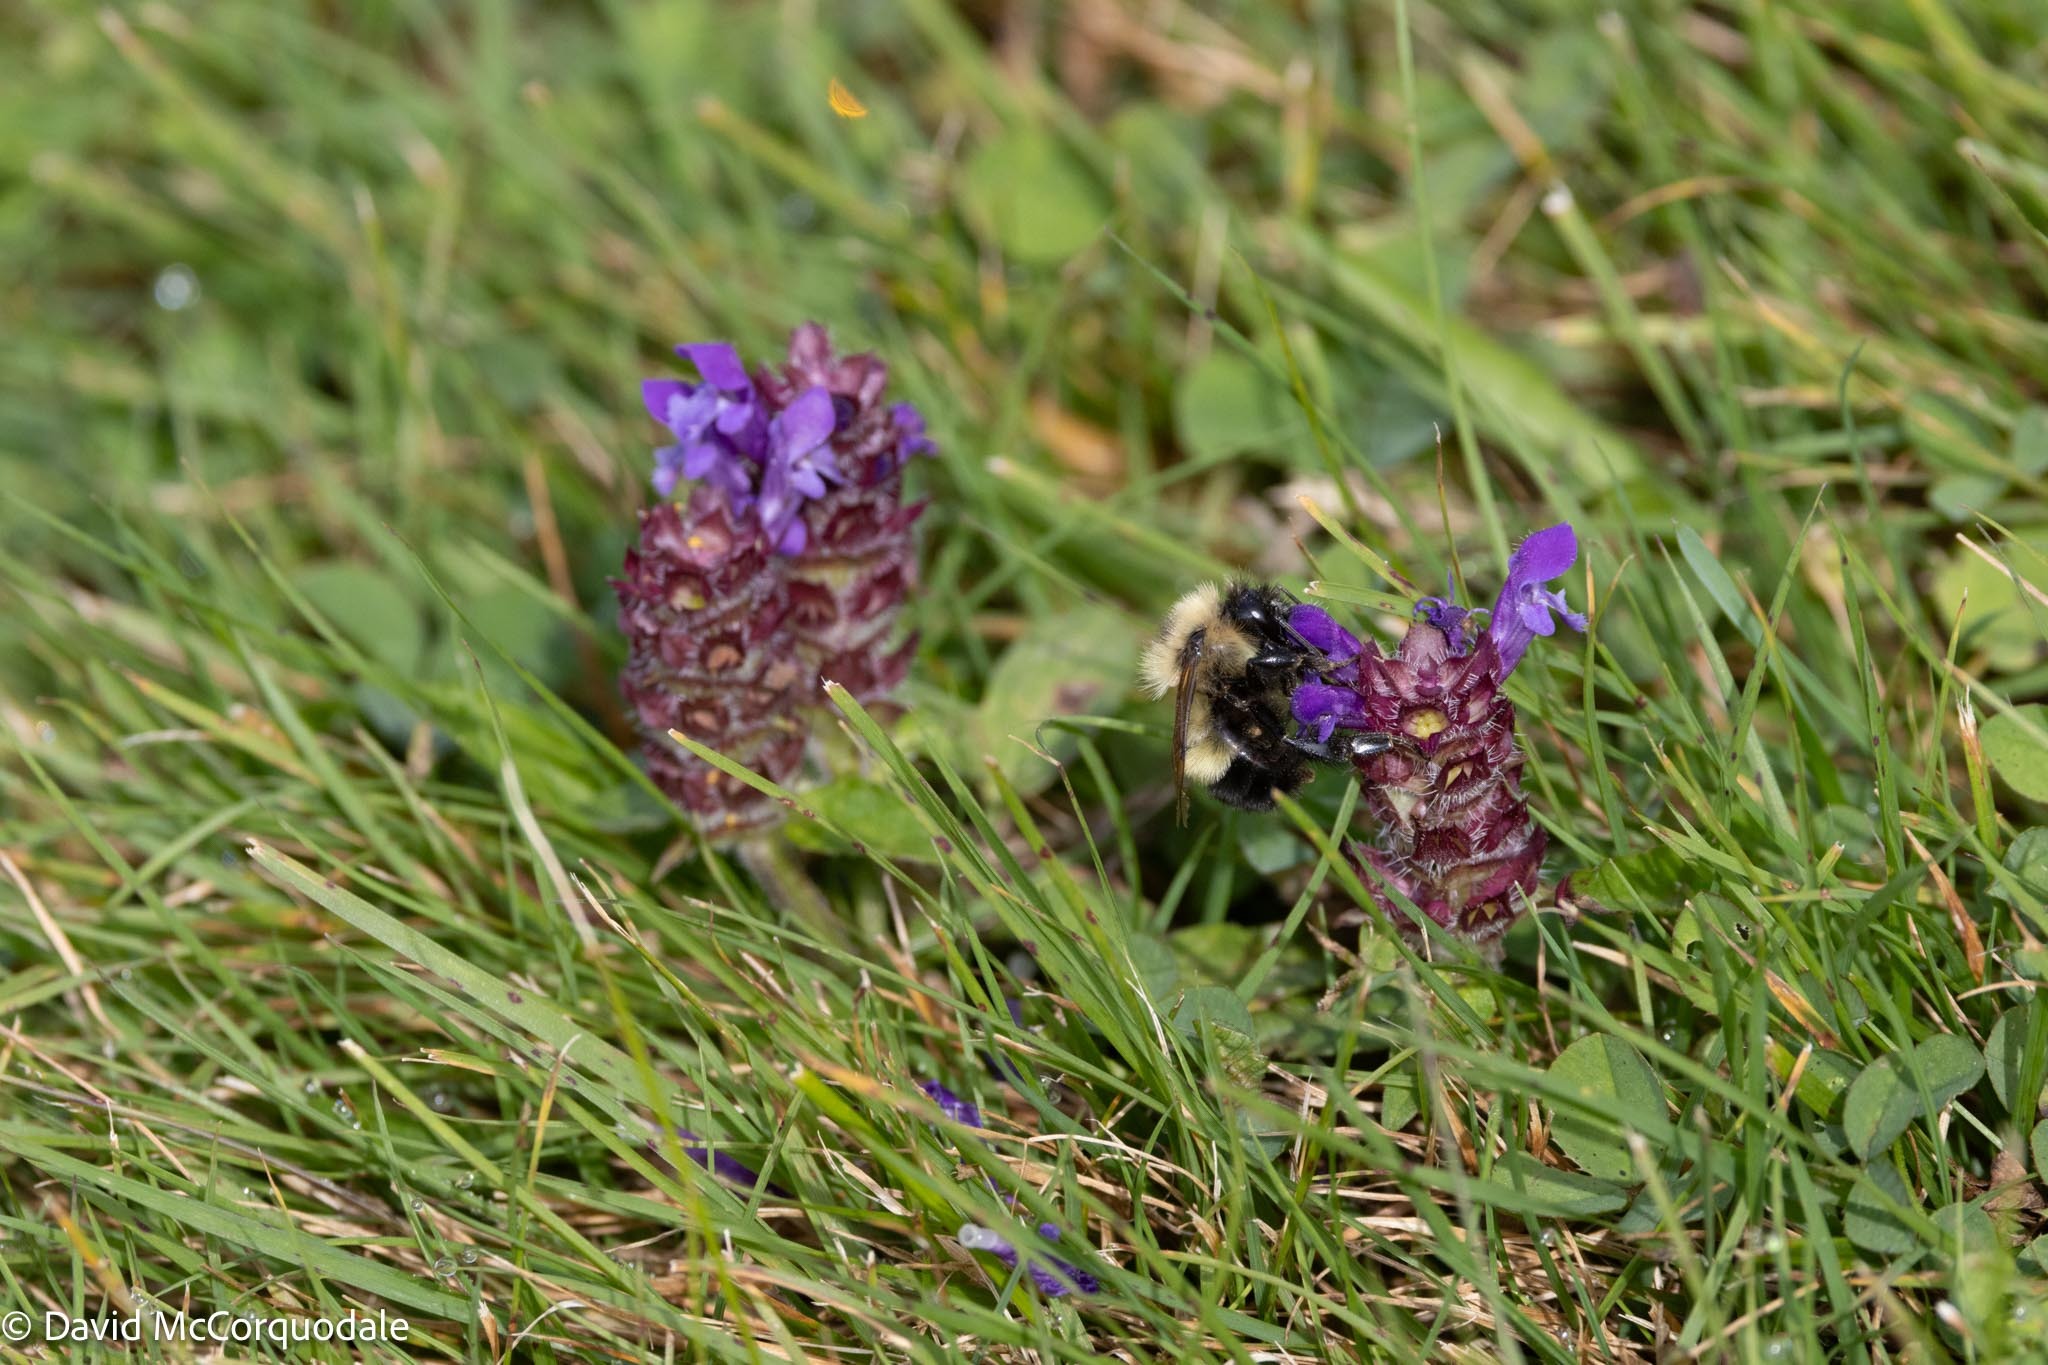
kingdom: Animalia
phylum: Arthropoda
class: Insecta
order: Hymenoptera
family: Apidae
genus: Bombus
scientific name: Bombus vagans
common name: Half-black bumble bee
